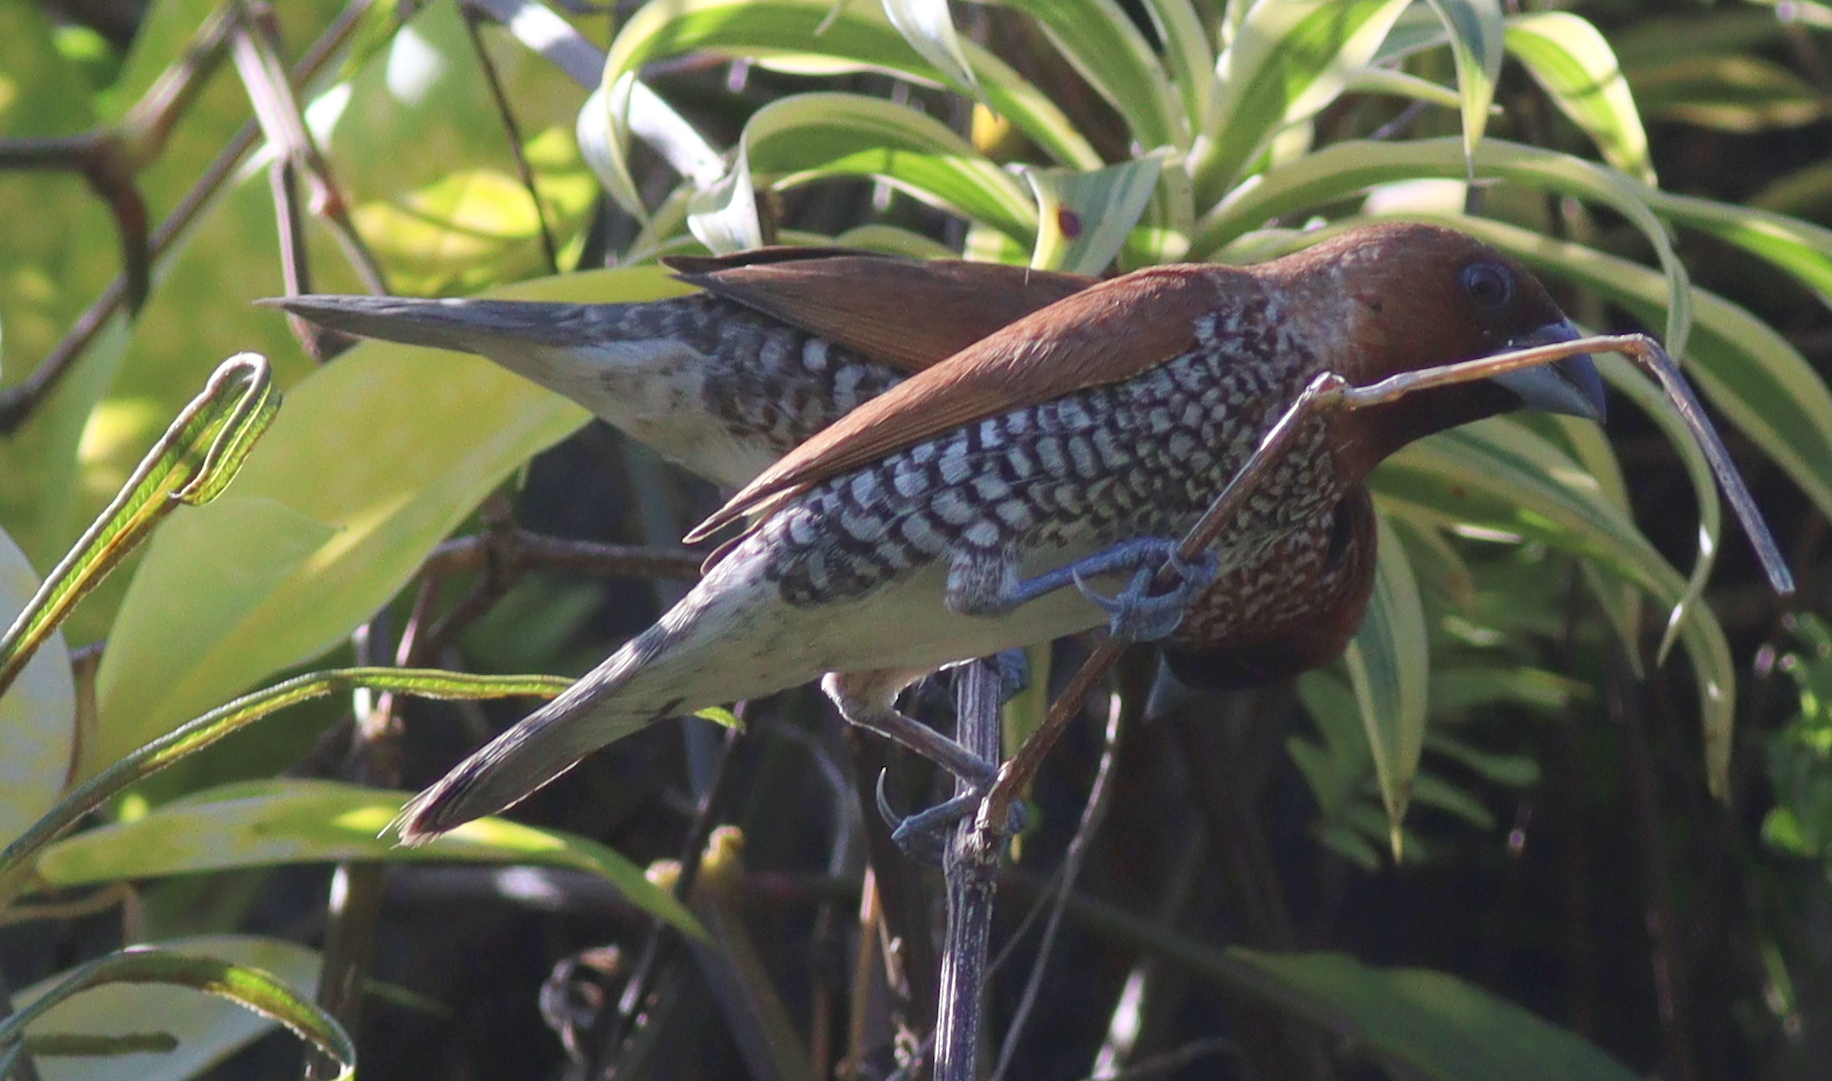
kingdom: Animalia
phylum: Chordata
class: Aves
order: Passeriformes
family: Estrildidae
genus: Lonchura
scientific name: Lonchura punctulata
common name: Scaly-breasted munia
